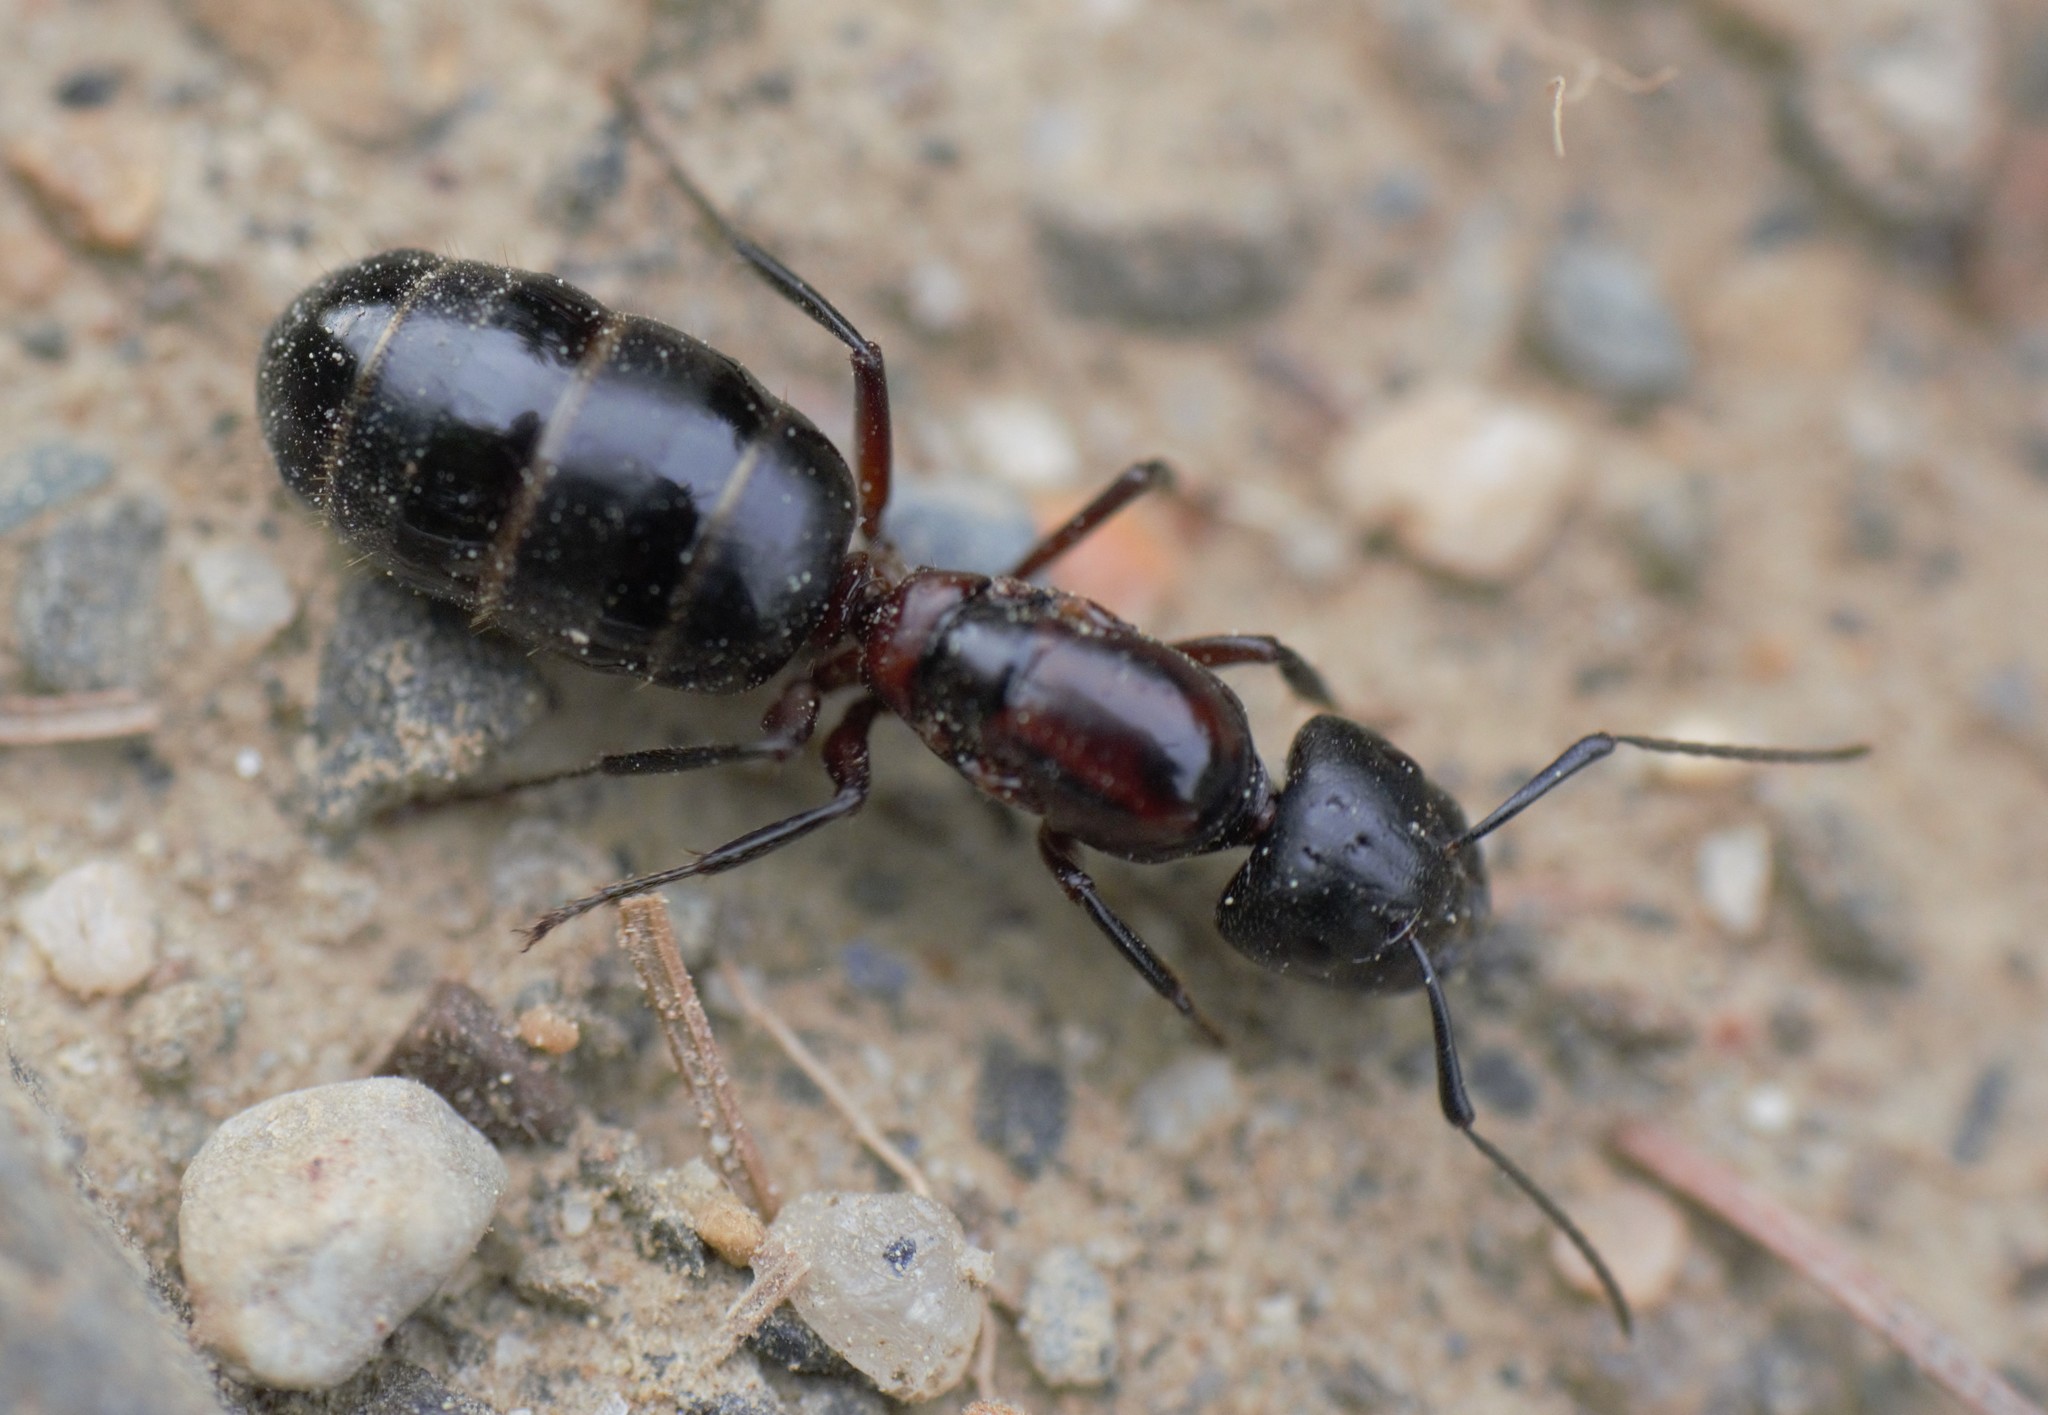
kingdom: Animalia
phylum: Arthropoda
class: Insecta
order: Hymenoptera
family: Formicidae
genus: Camponotus
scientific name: Camponotus novaeboracensis
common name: New york carpenter ant
